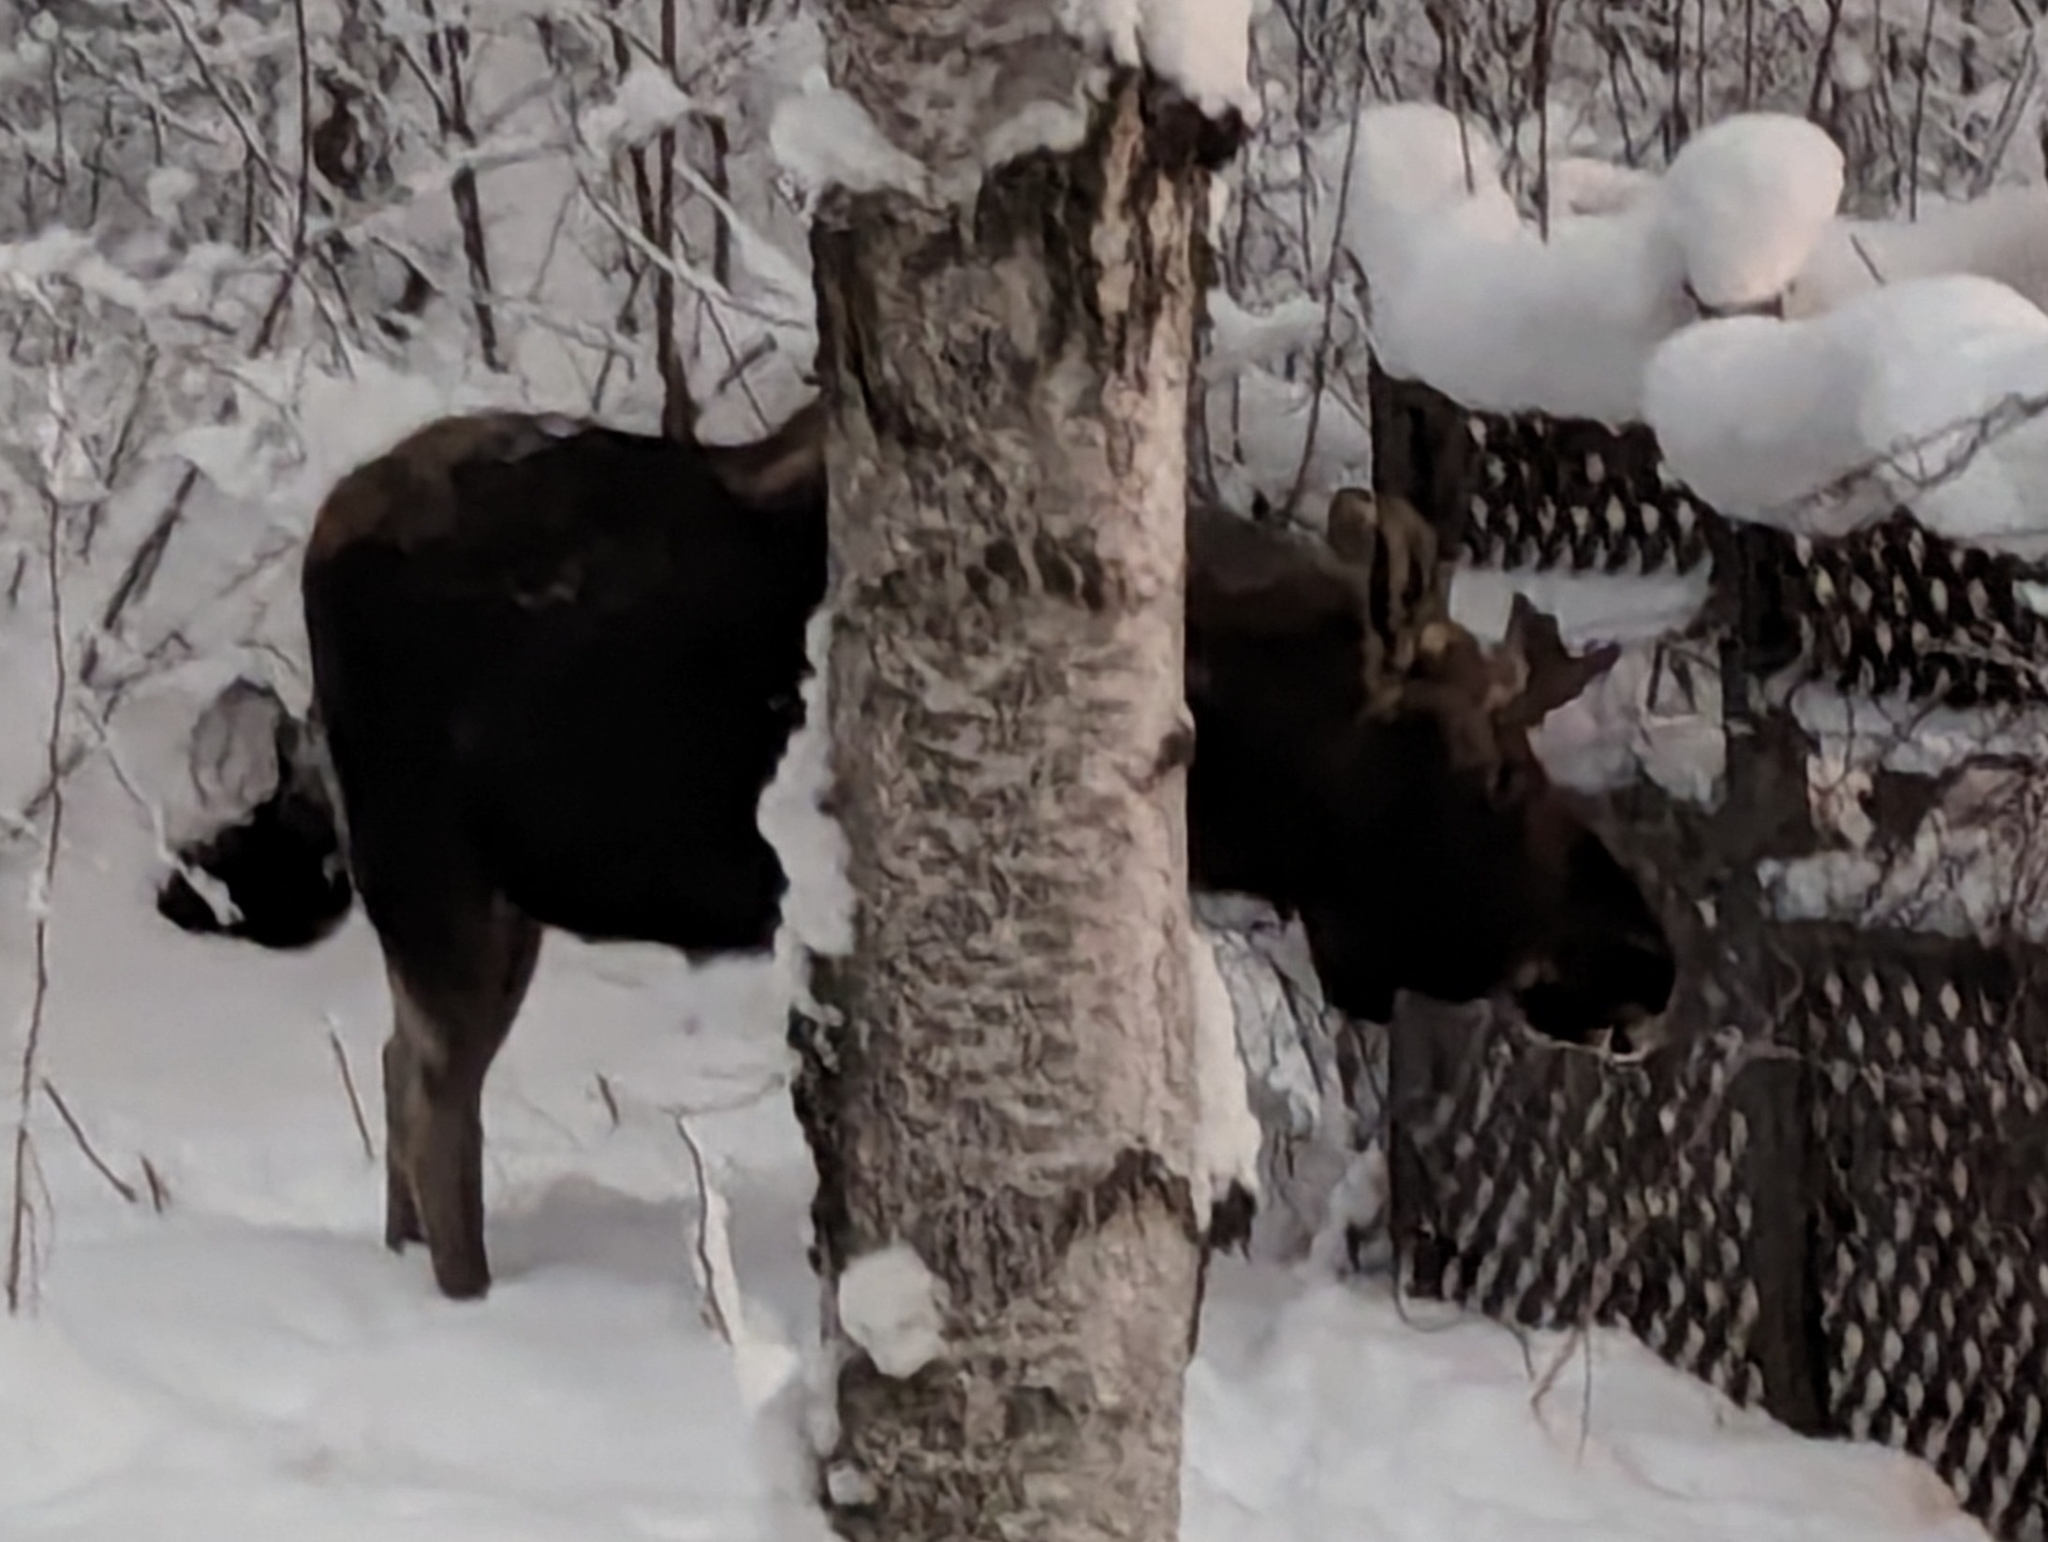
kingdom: Animalia
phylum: Chordata
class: Mammalia
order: Artiodactyla
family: Cervidae
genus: Alces
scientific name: Alces alces
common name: Moose
